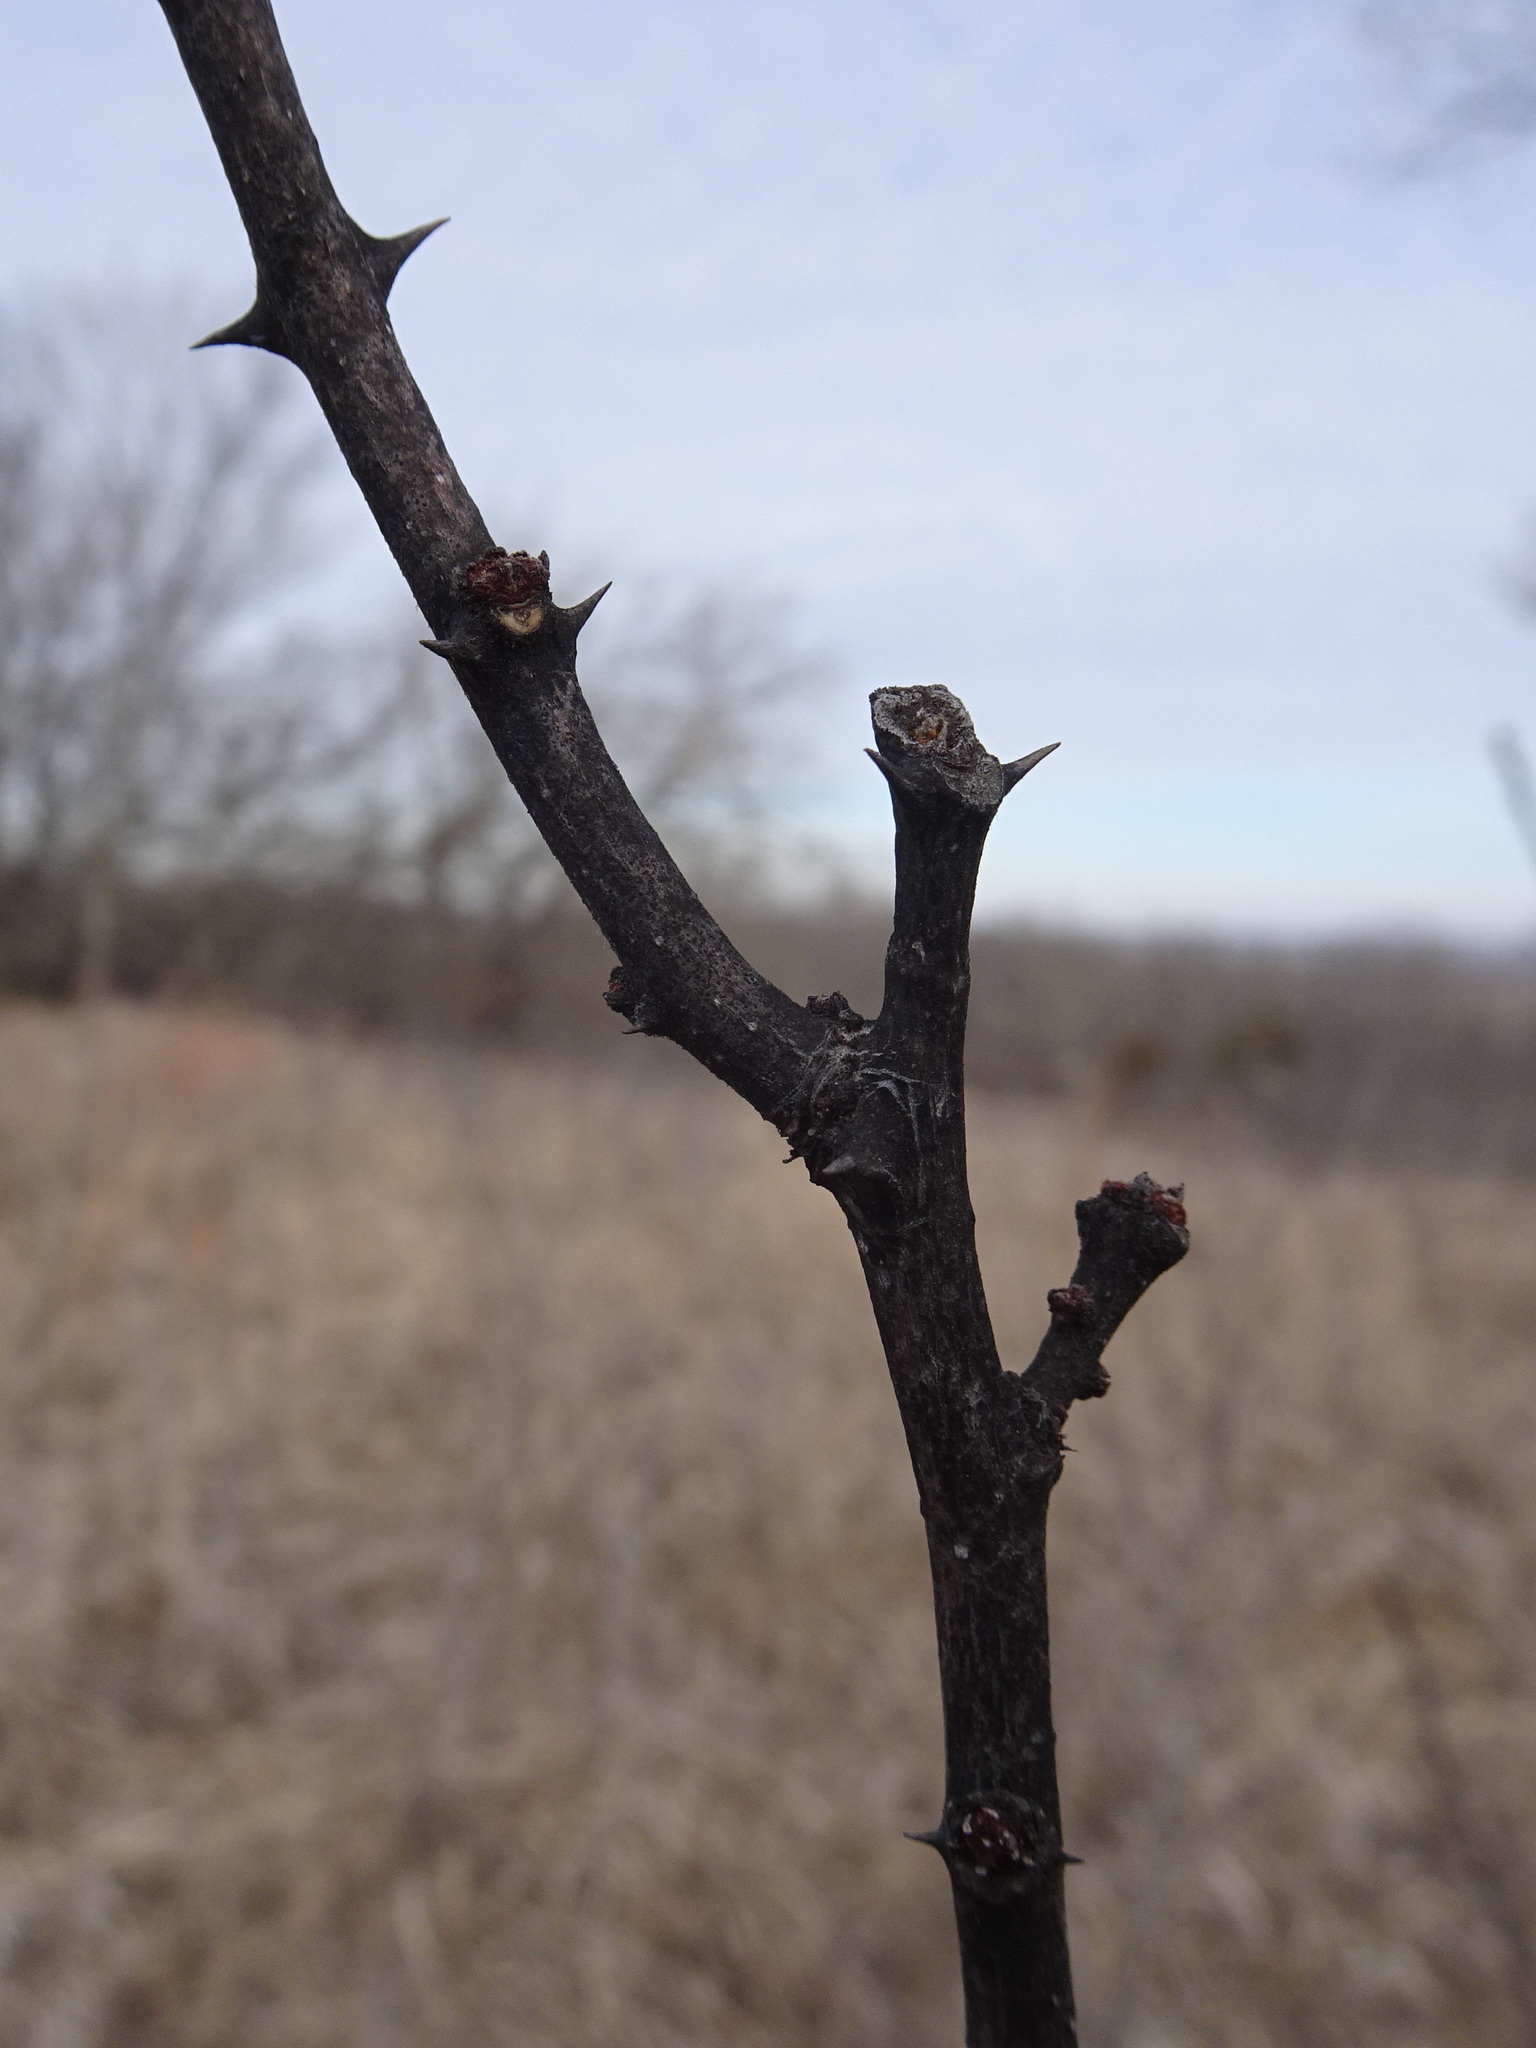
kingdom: Plantae
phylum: Tracheophyta
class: Magnoliopsida
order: Sapindales
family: Rutaceae
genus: Zanthoxylum
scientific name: Zanthoxylum americanum
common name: Northern prickly-ash
